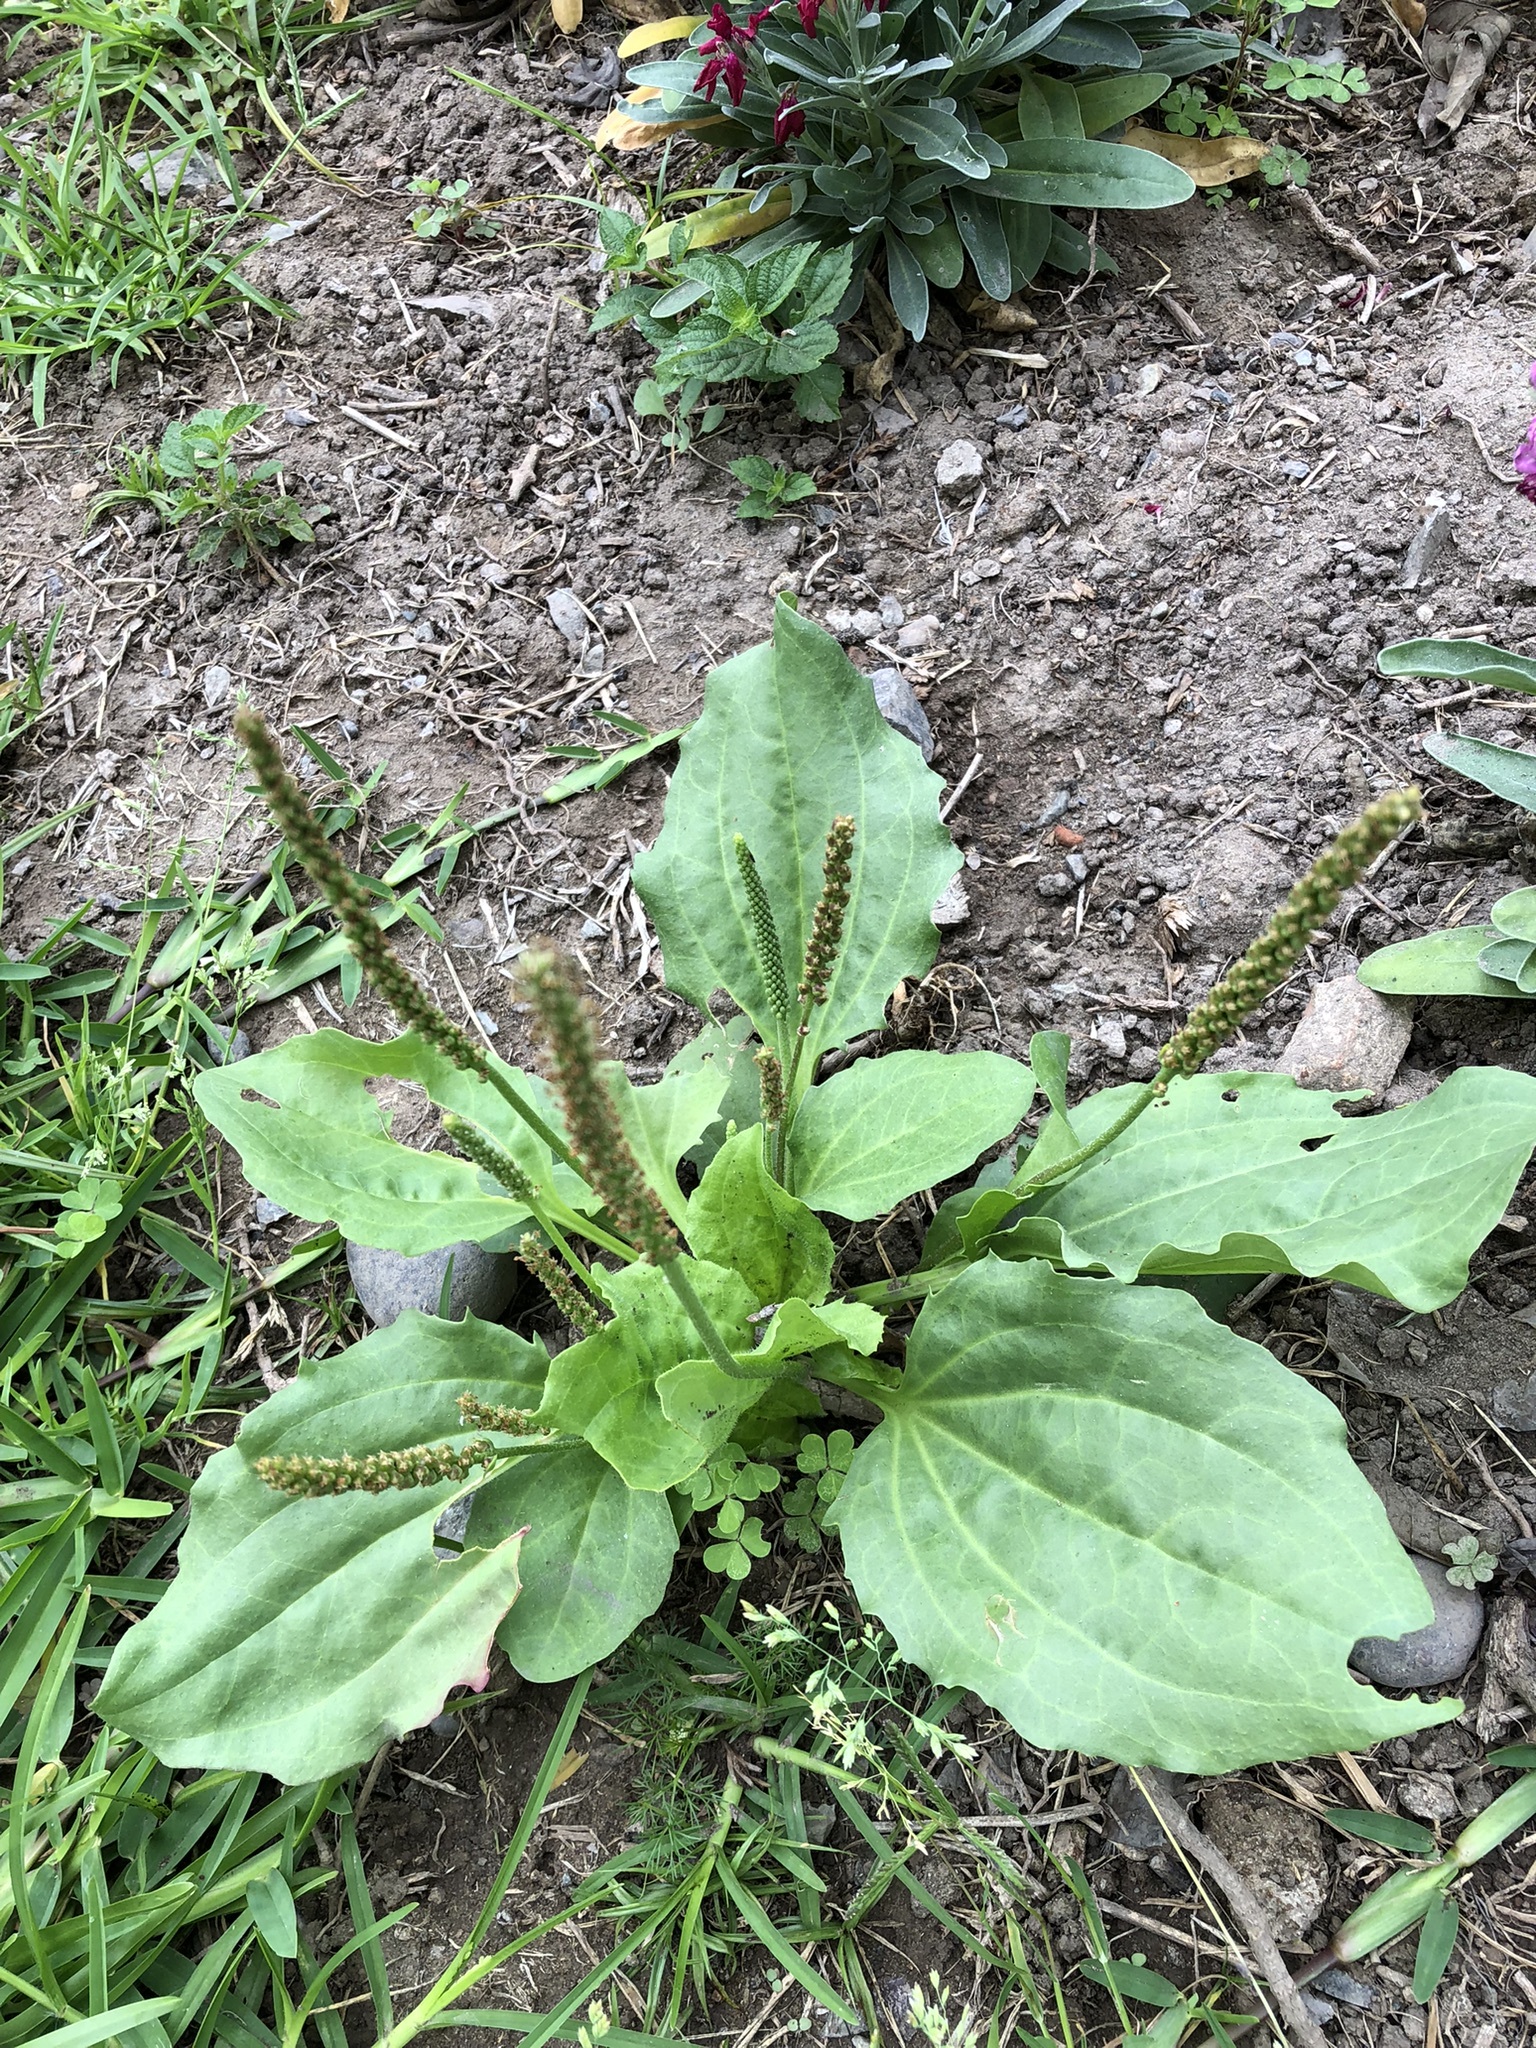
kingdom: Plantae
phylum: Tracheophyta
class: Magnoliopsida
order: Lamiales
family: Plantaginaceae
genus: Plantago
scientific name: Plantago major
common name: Common plantain
